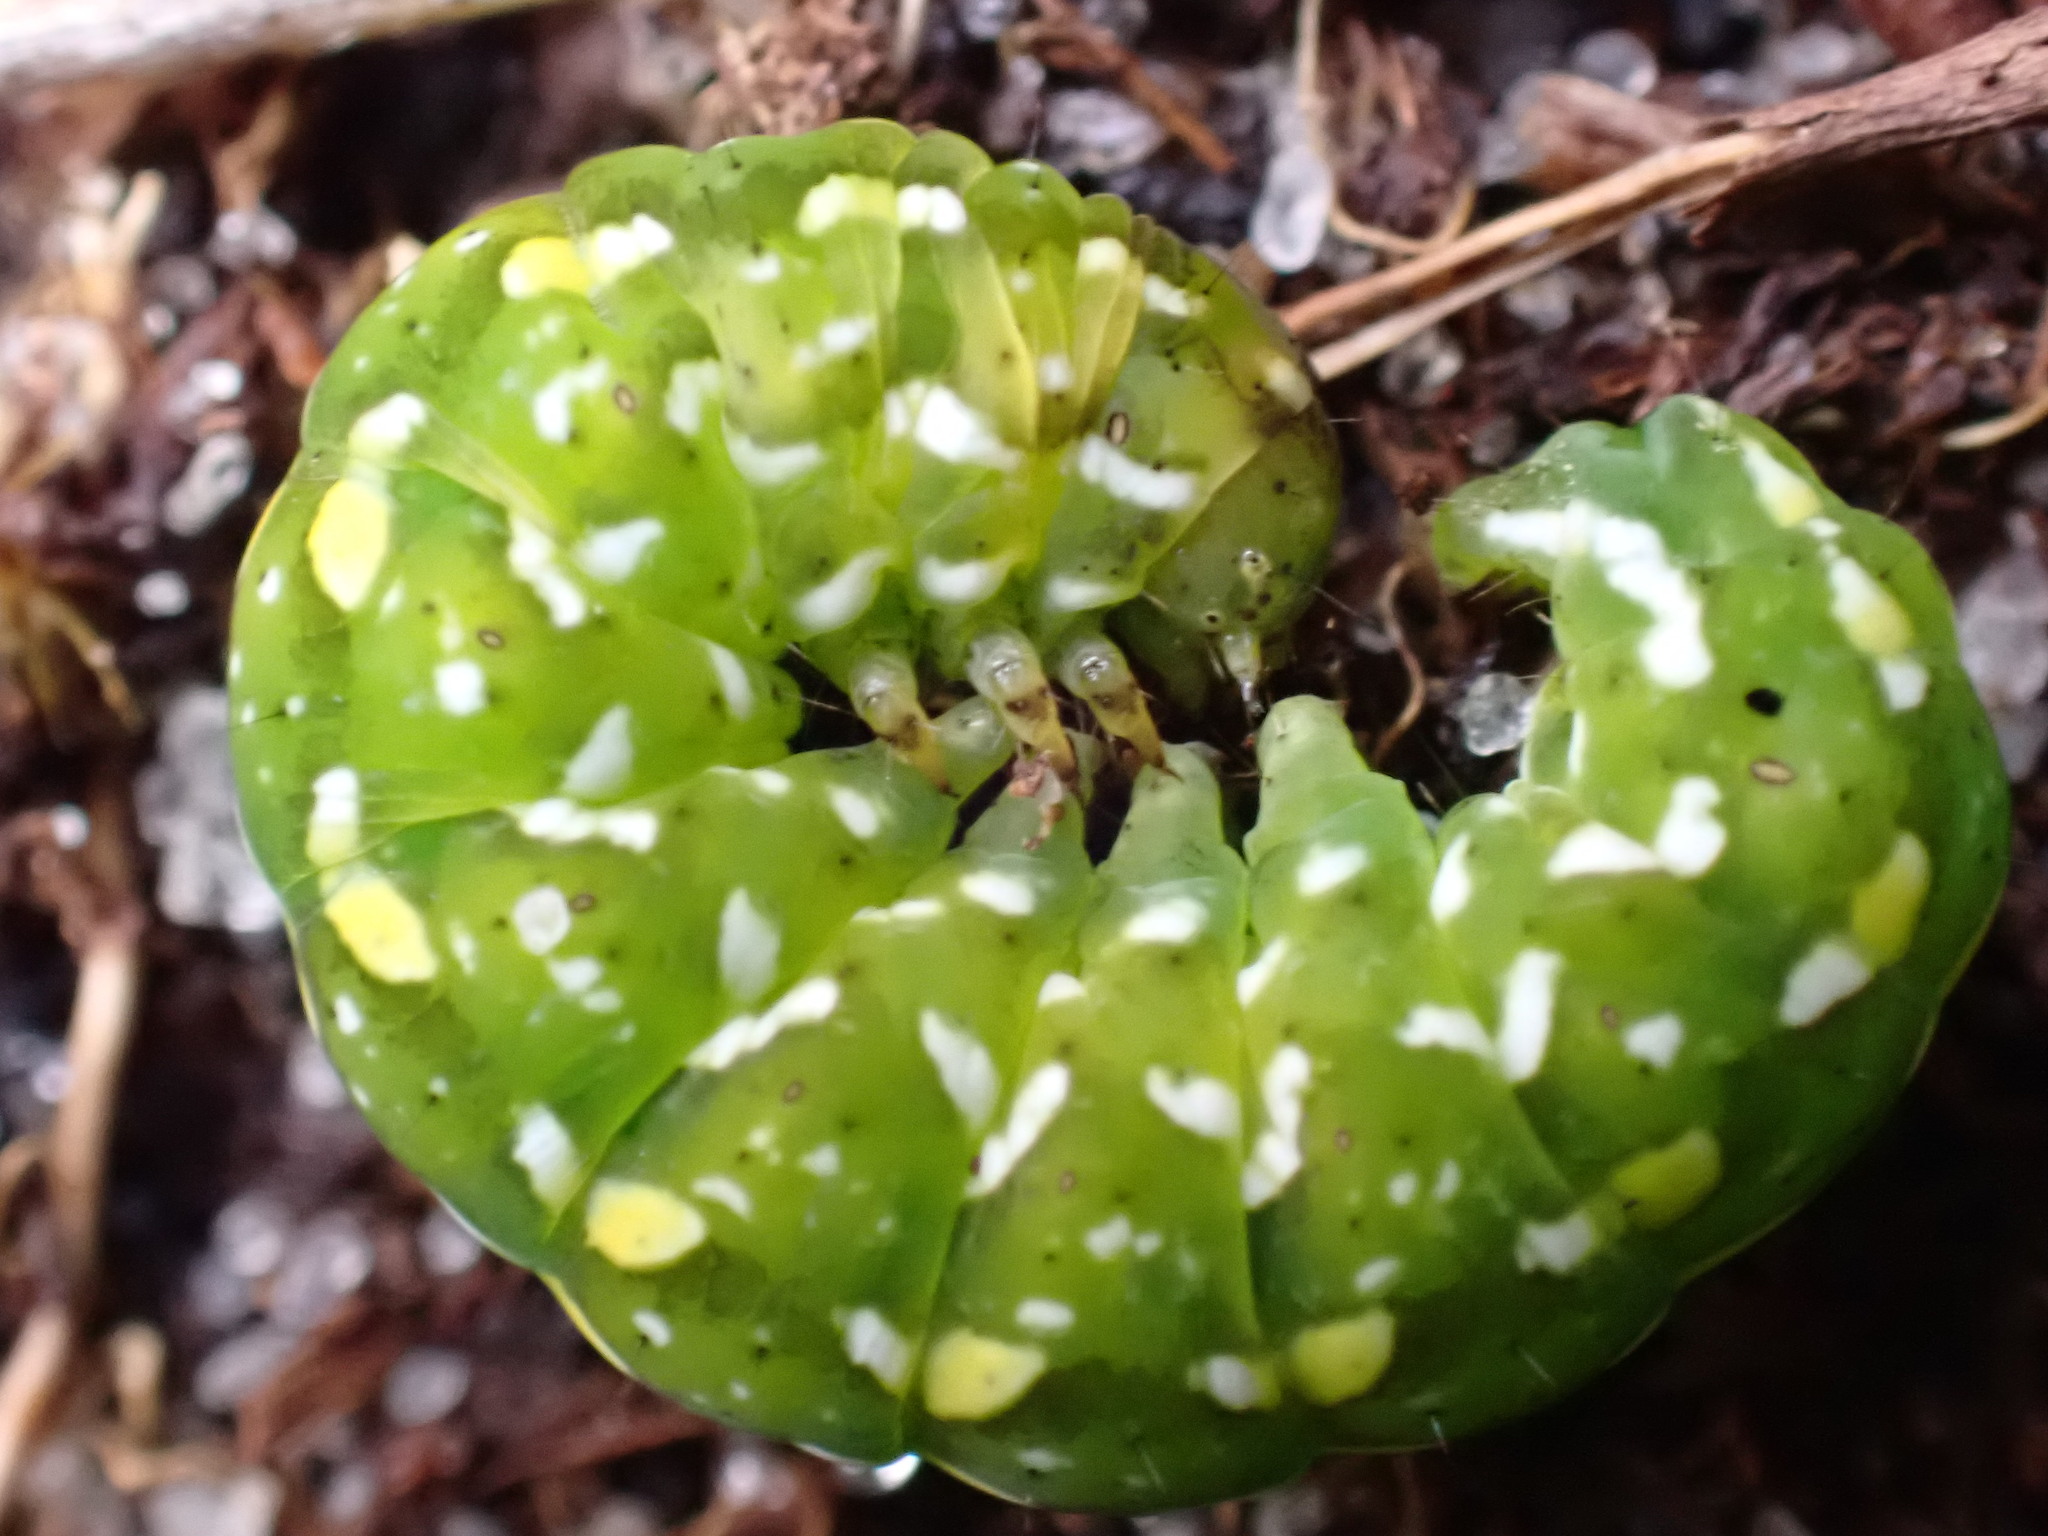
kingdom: Animalia
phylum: Arthropoda
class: Insecta
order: Lepidoptera
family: Noctuidae
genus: Anarta
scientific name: Anarta myrtilli
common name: Beautiful yellow underwing
